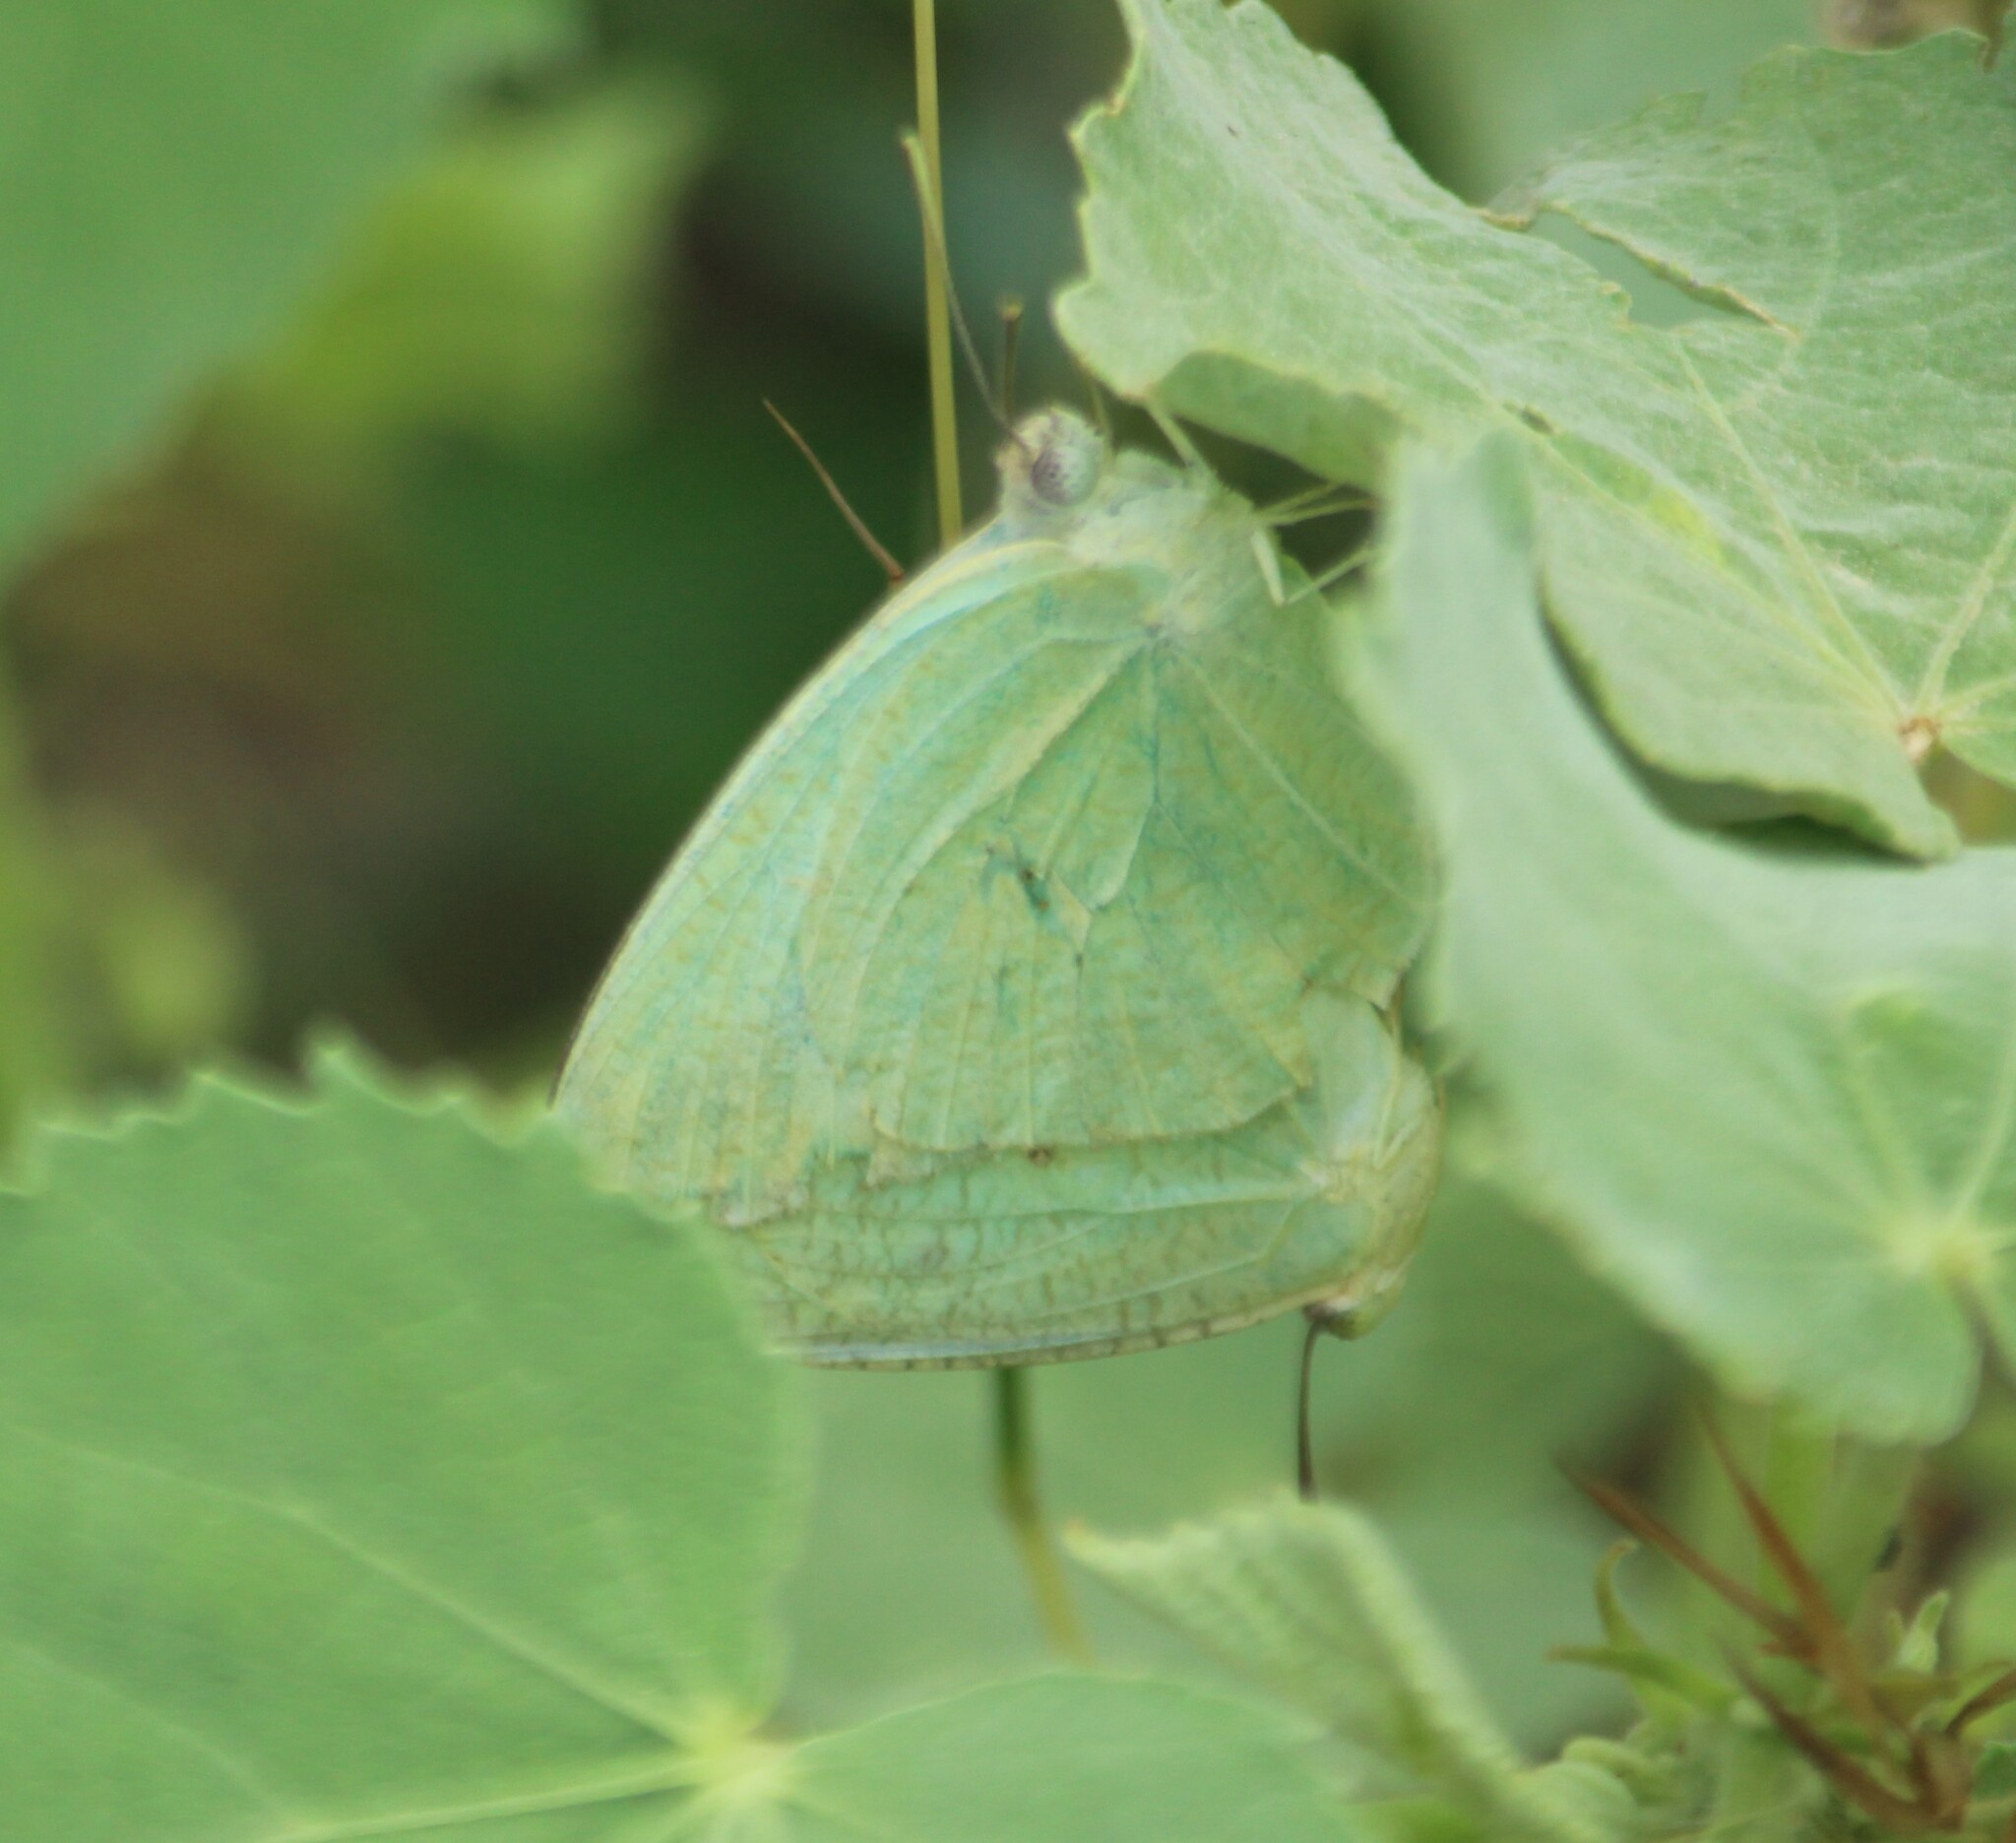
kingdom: Animalia
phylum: Arthropoda
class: Insecta
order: Lepidoptera
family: Pieridae
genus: Catopsilia
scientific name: Catopsilia pyranthe
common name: Mottled emigrant
